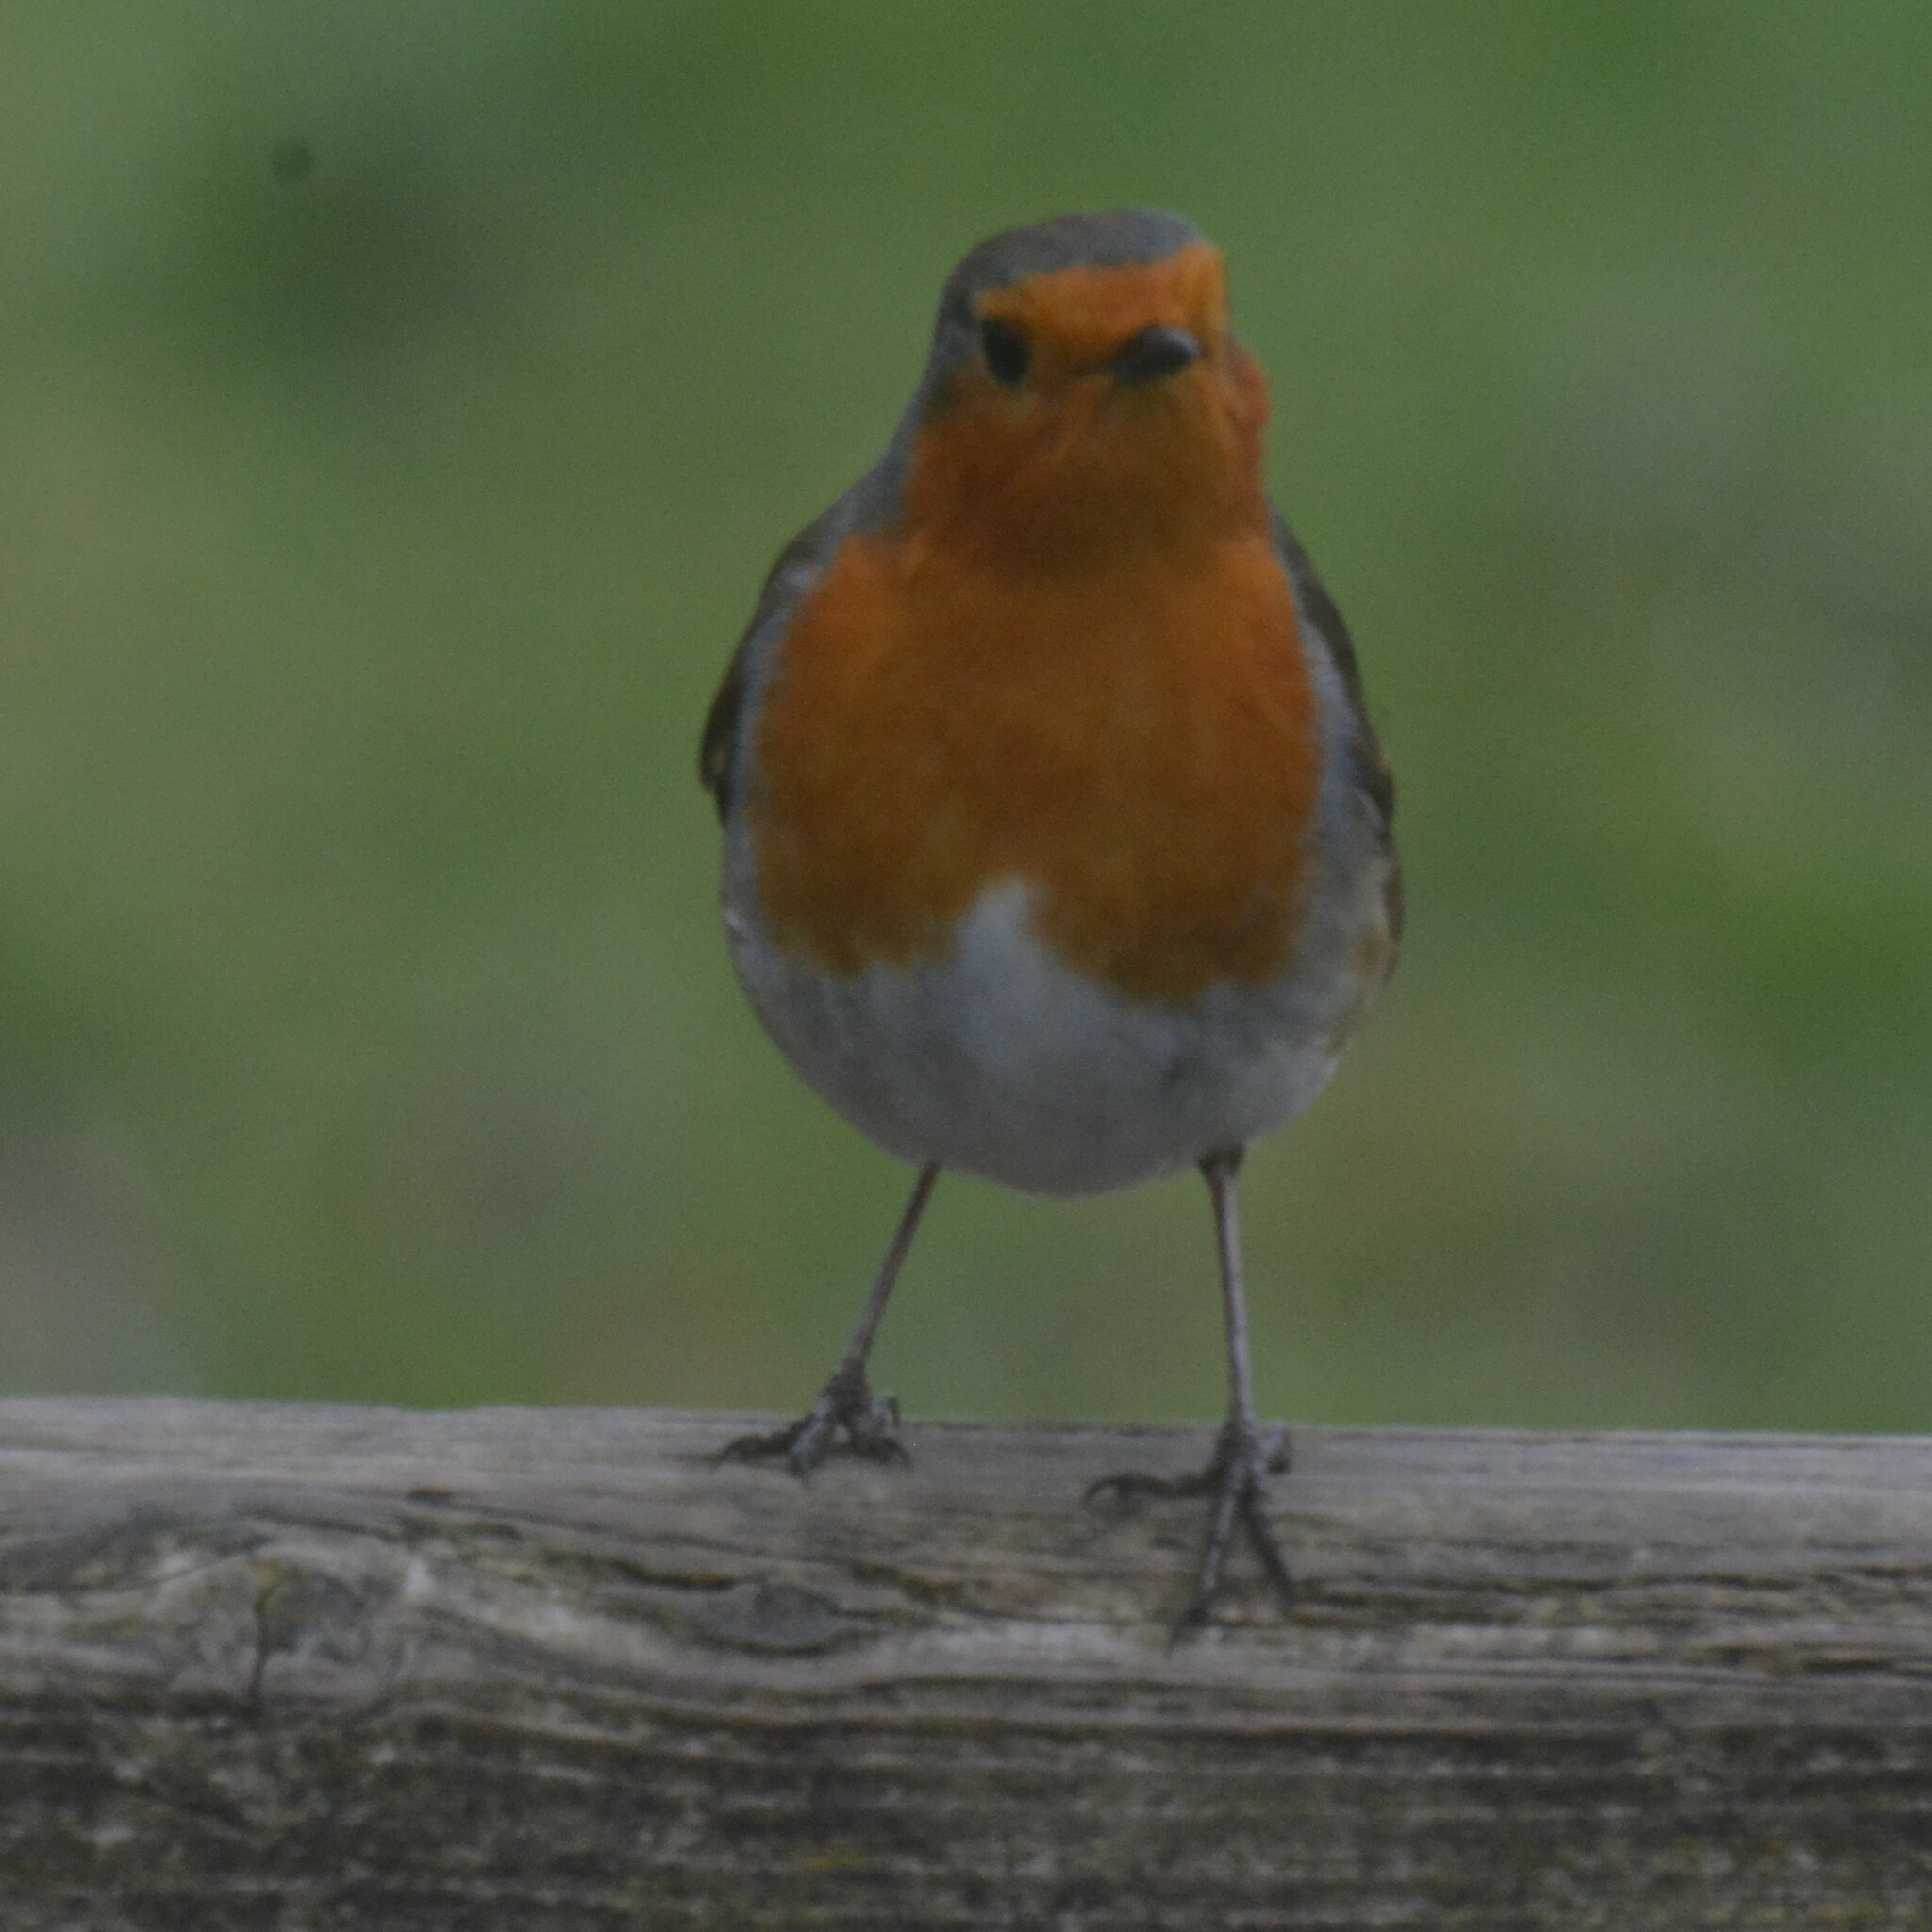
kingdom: Animalia
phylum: Chordata
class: Aves
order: Passeriformes
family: Muscicapidae
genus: Erithacus
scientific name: Erithacus rubecula
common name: European robin
